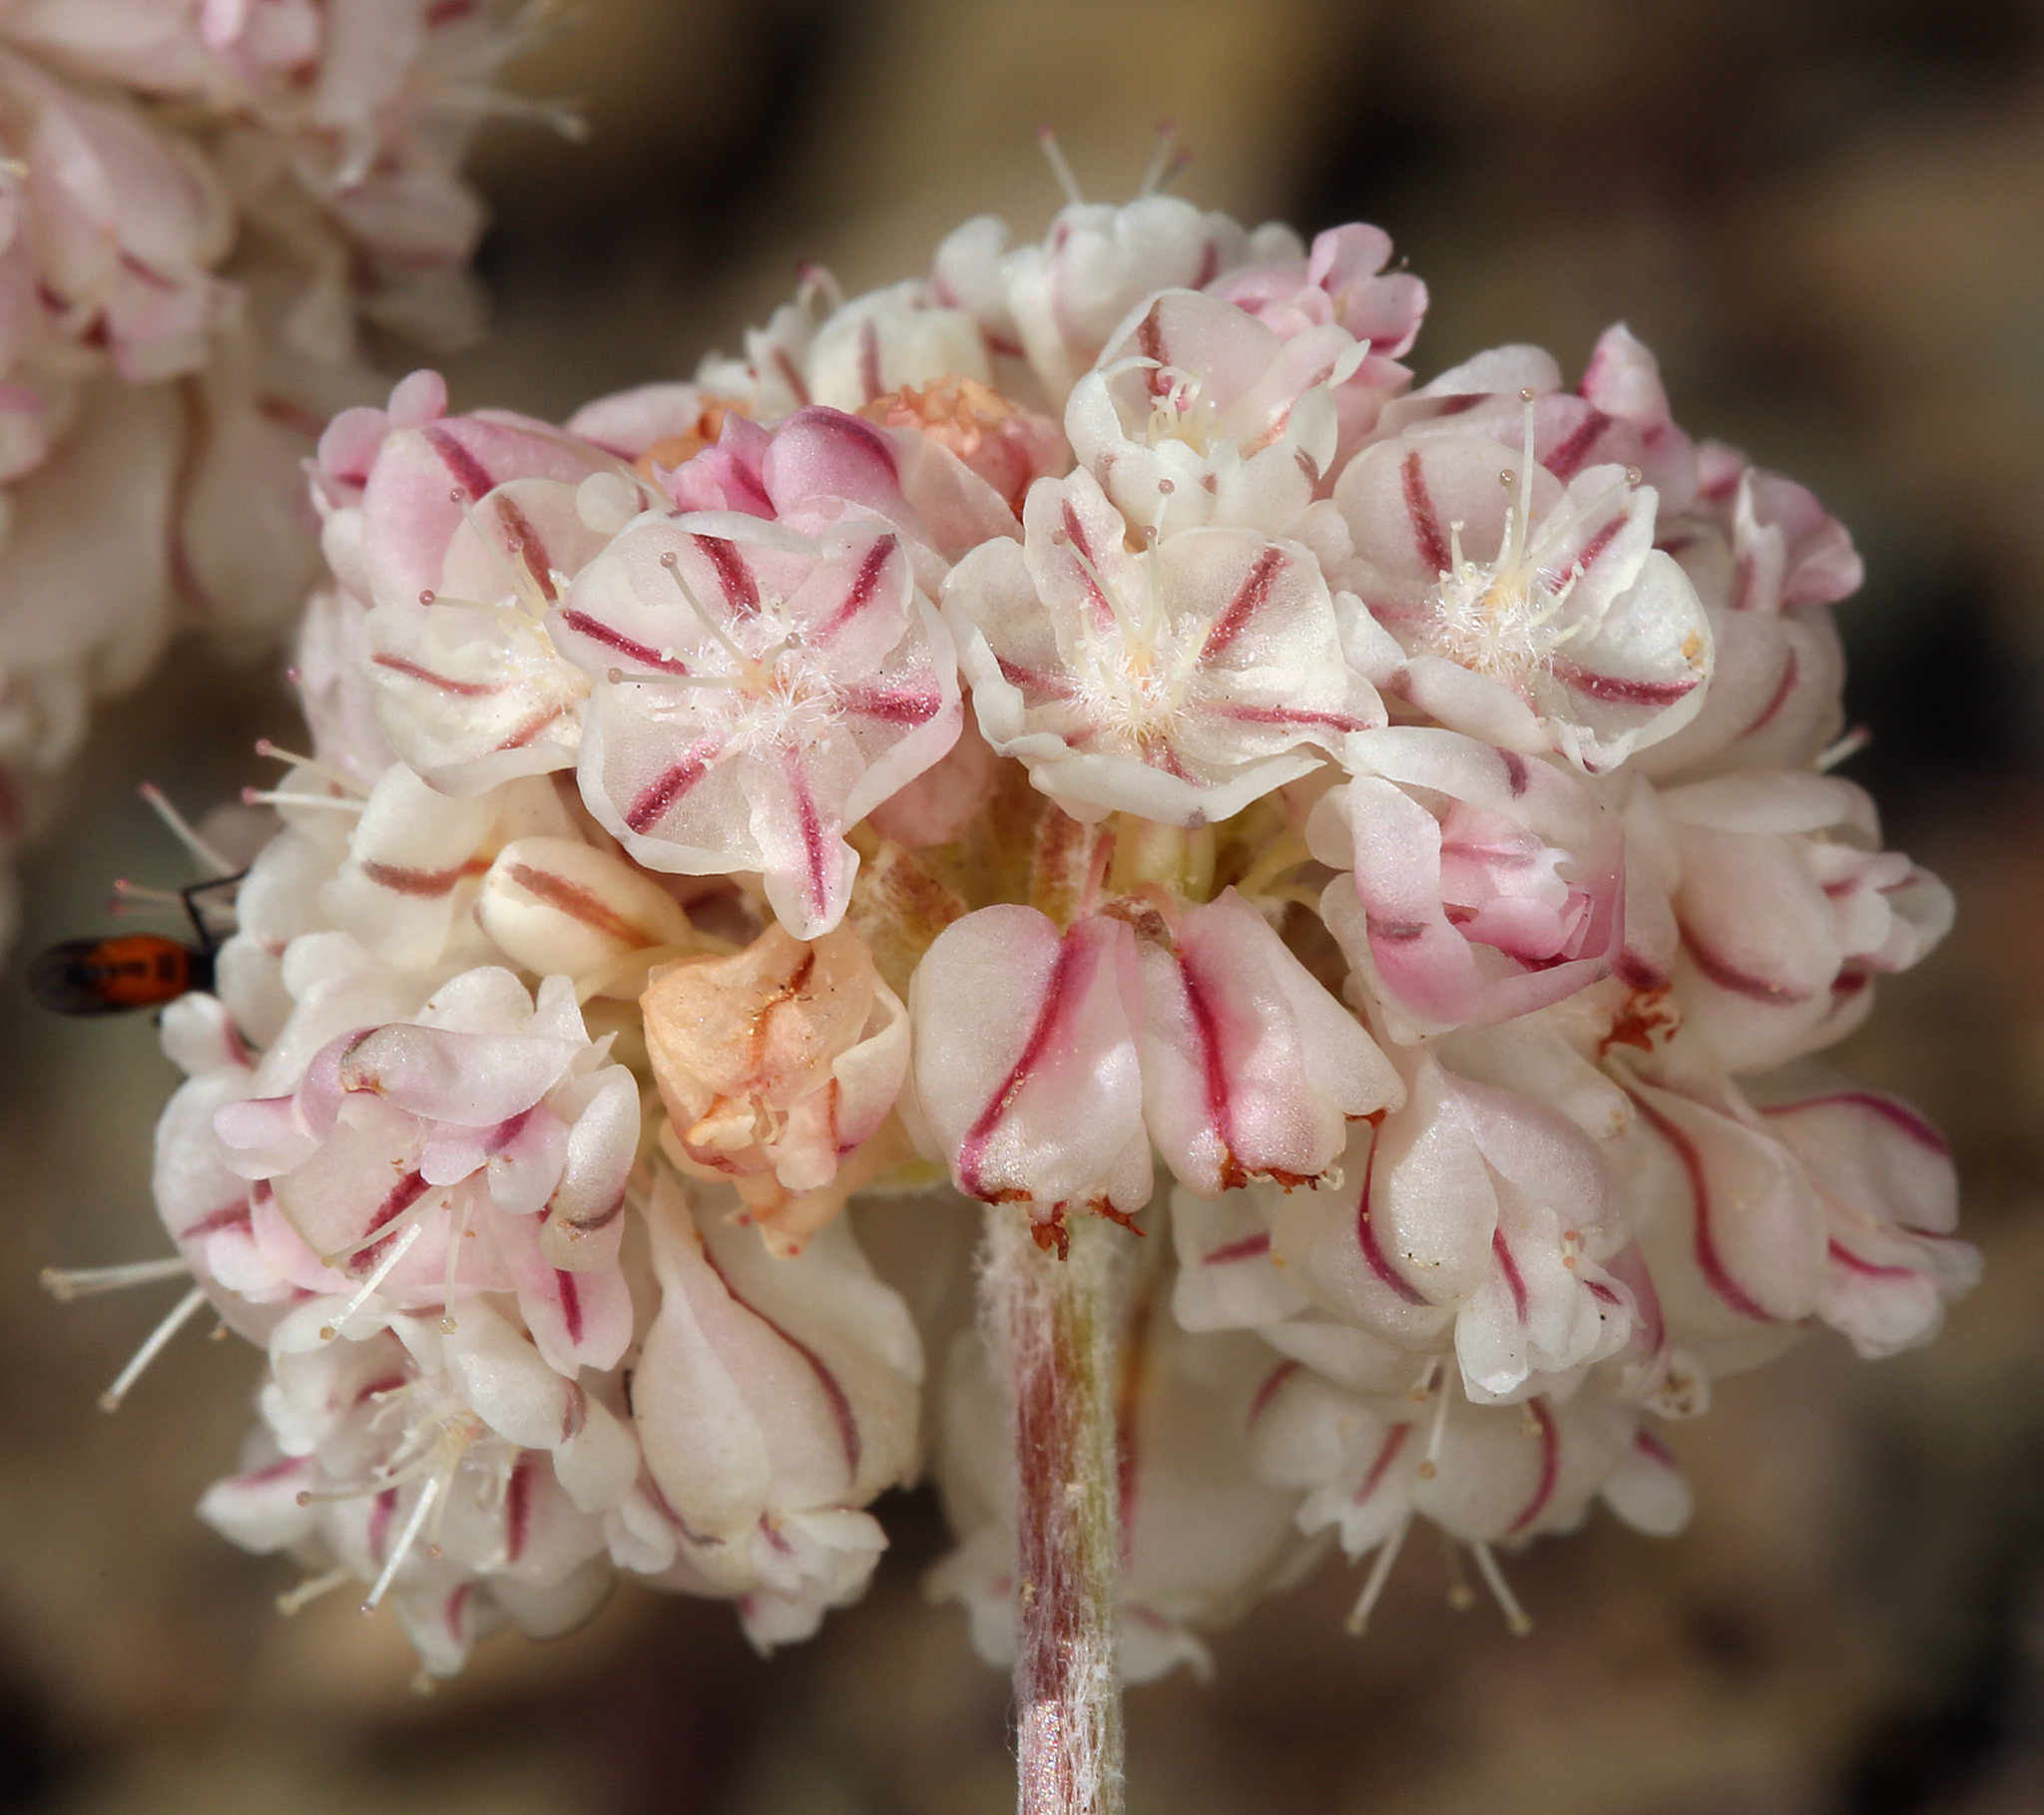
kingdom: Plantae
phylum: Tracheophyta
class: Magnoliopsida
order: Caryophyllales
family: Polygonaceae
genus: Eriogonum
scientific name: Eriogonum ovalifolium
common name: Cushion buckwheat
